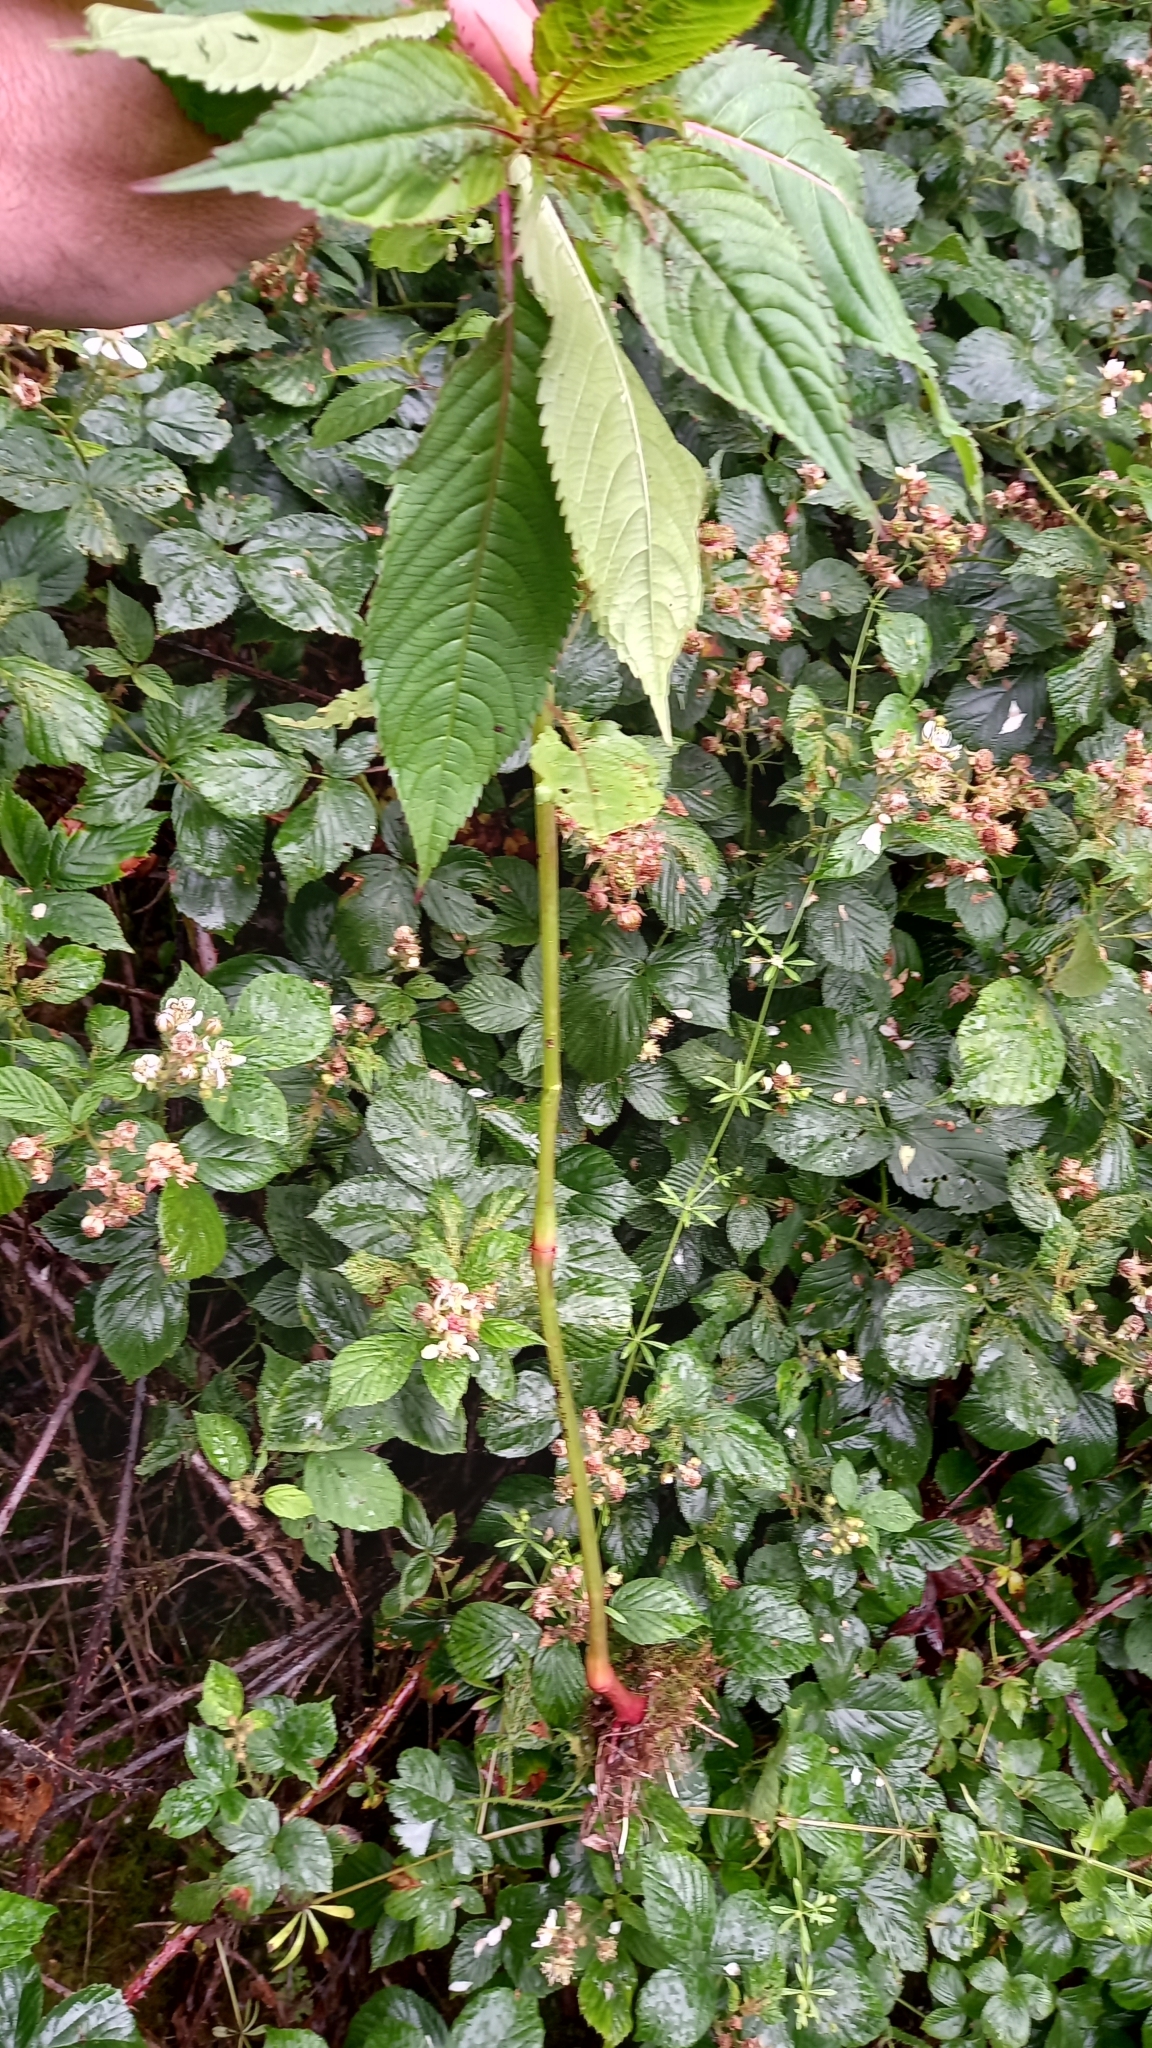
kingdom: Plantae
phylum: Tracheophyta
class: Magnoliopsida
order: Ericales
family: Balsaminaceae
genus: Impatiens
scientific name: Impatiens glandulifera
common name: Himalayan balsam
